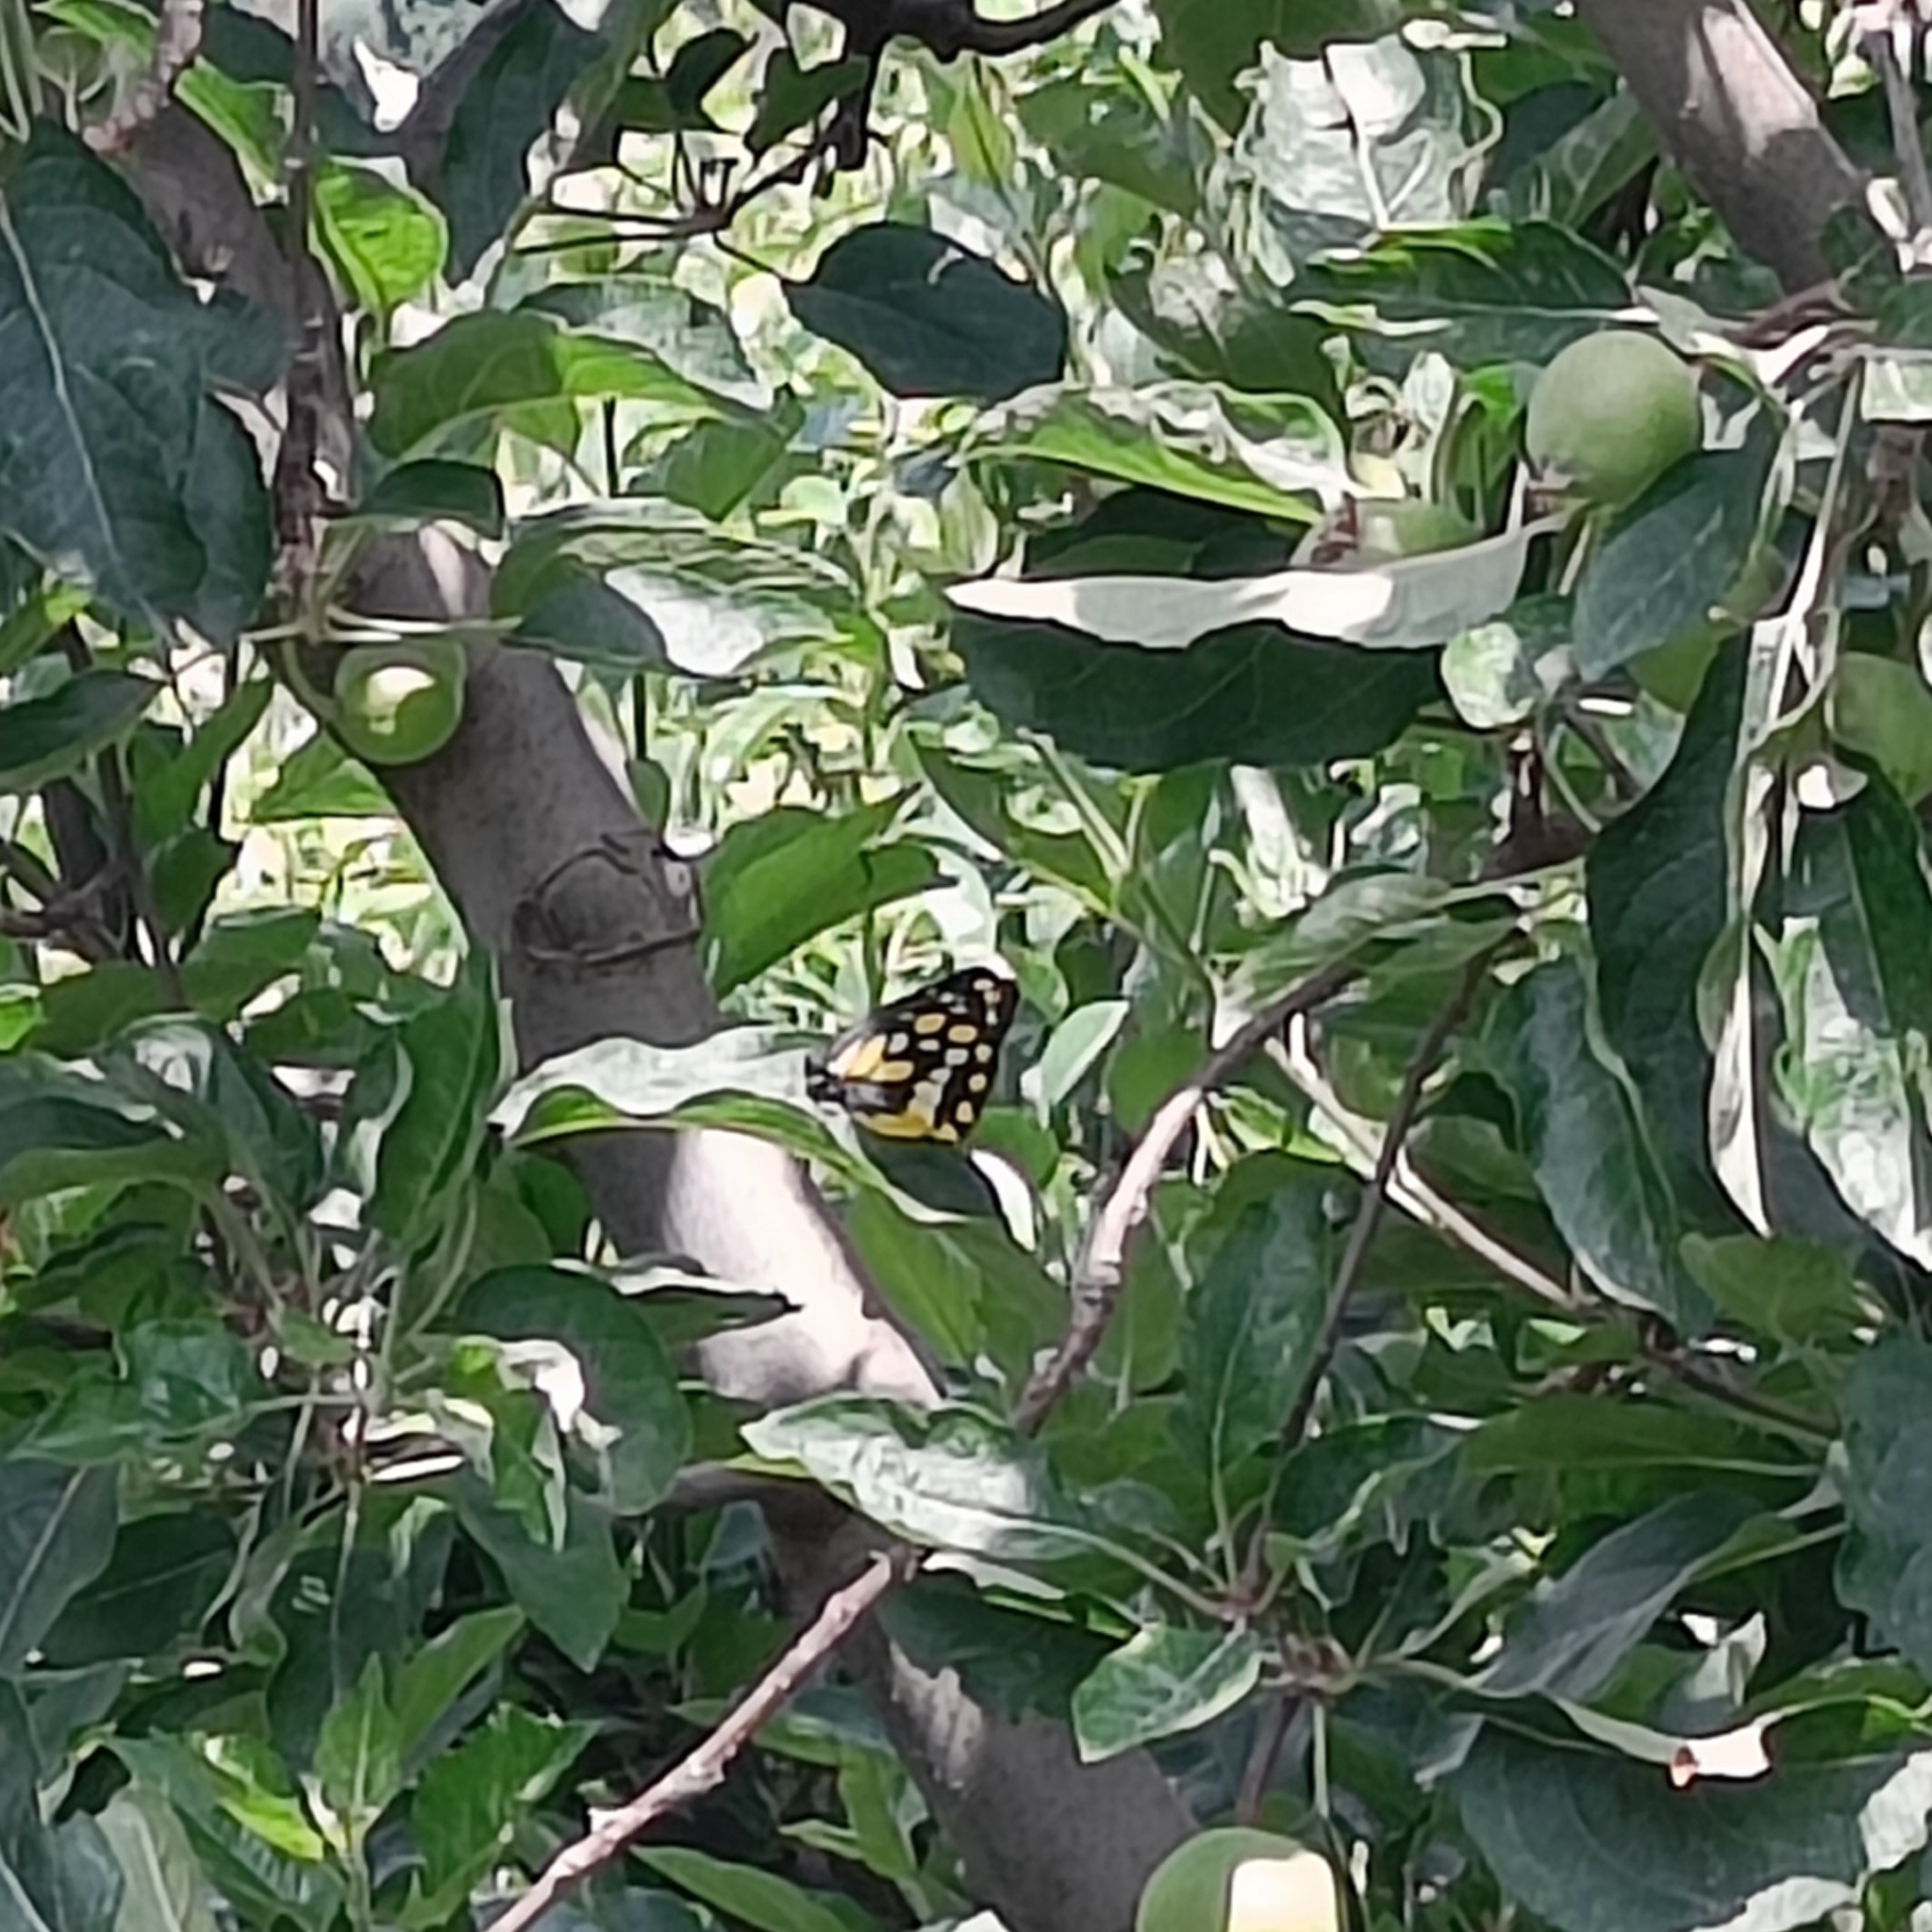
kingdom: Animalia
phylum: Arthropoda
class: Insecta
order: Lepidoptera
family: Pieridae
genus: Delias
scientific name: Delias belladonna
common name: Hill jezebel
